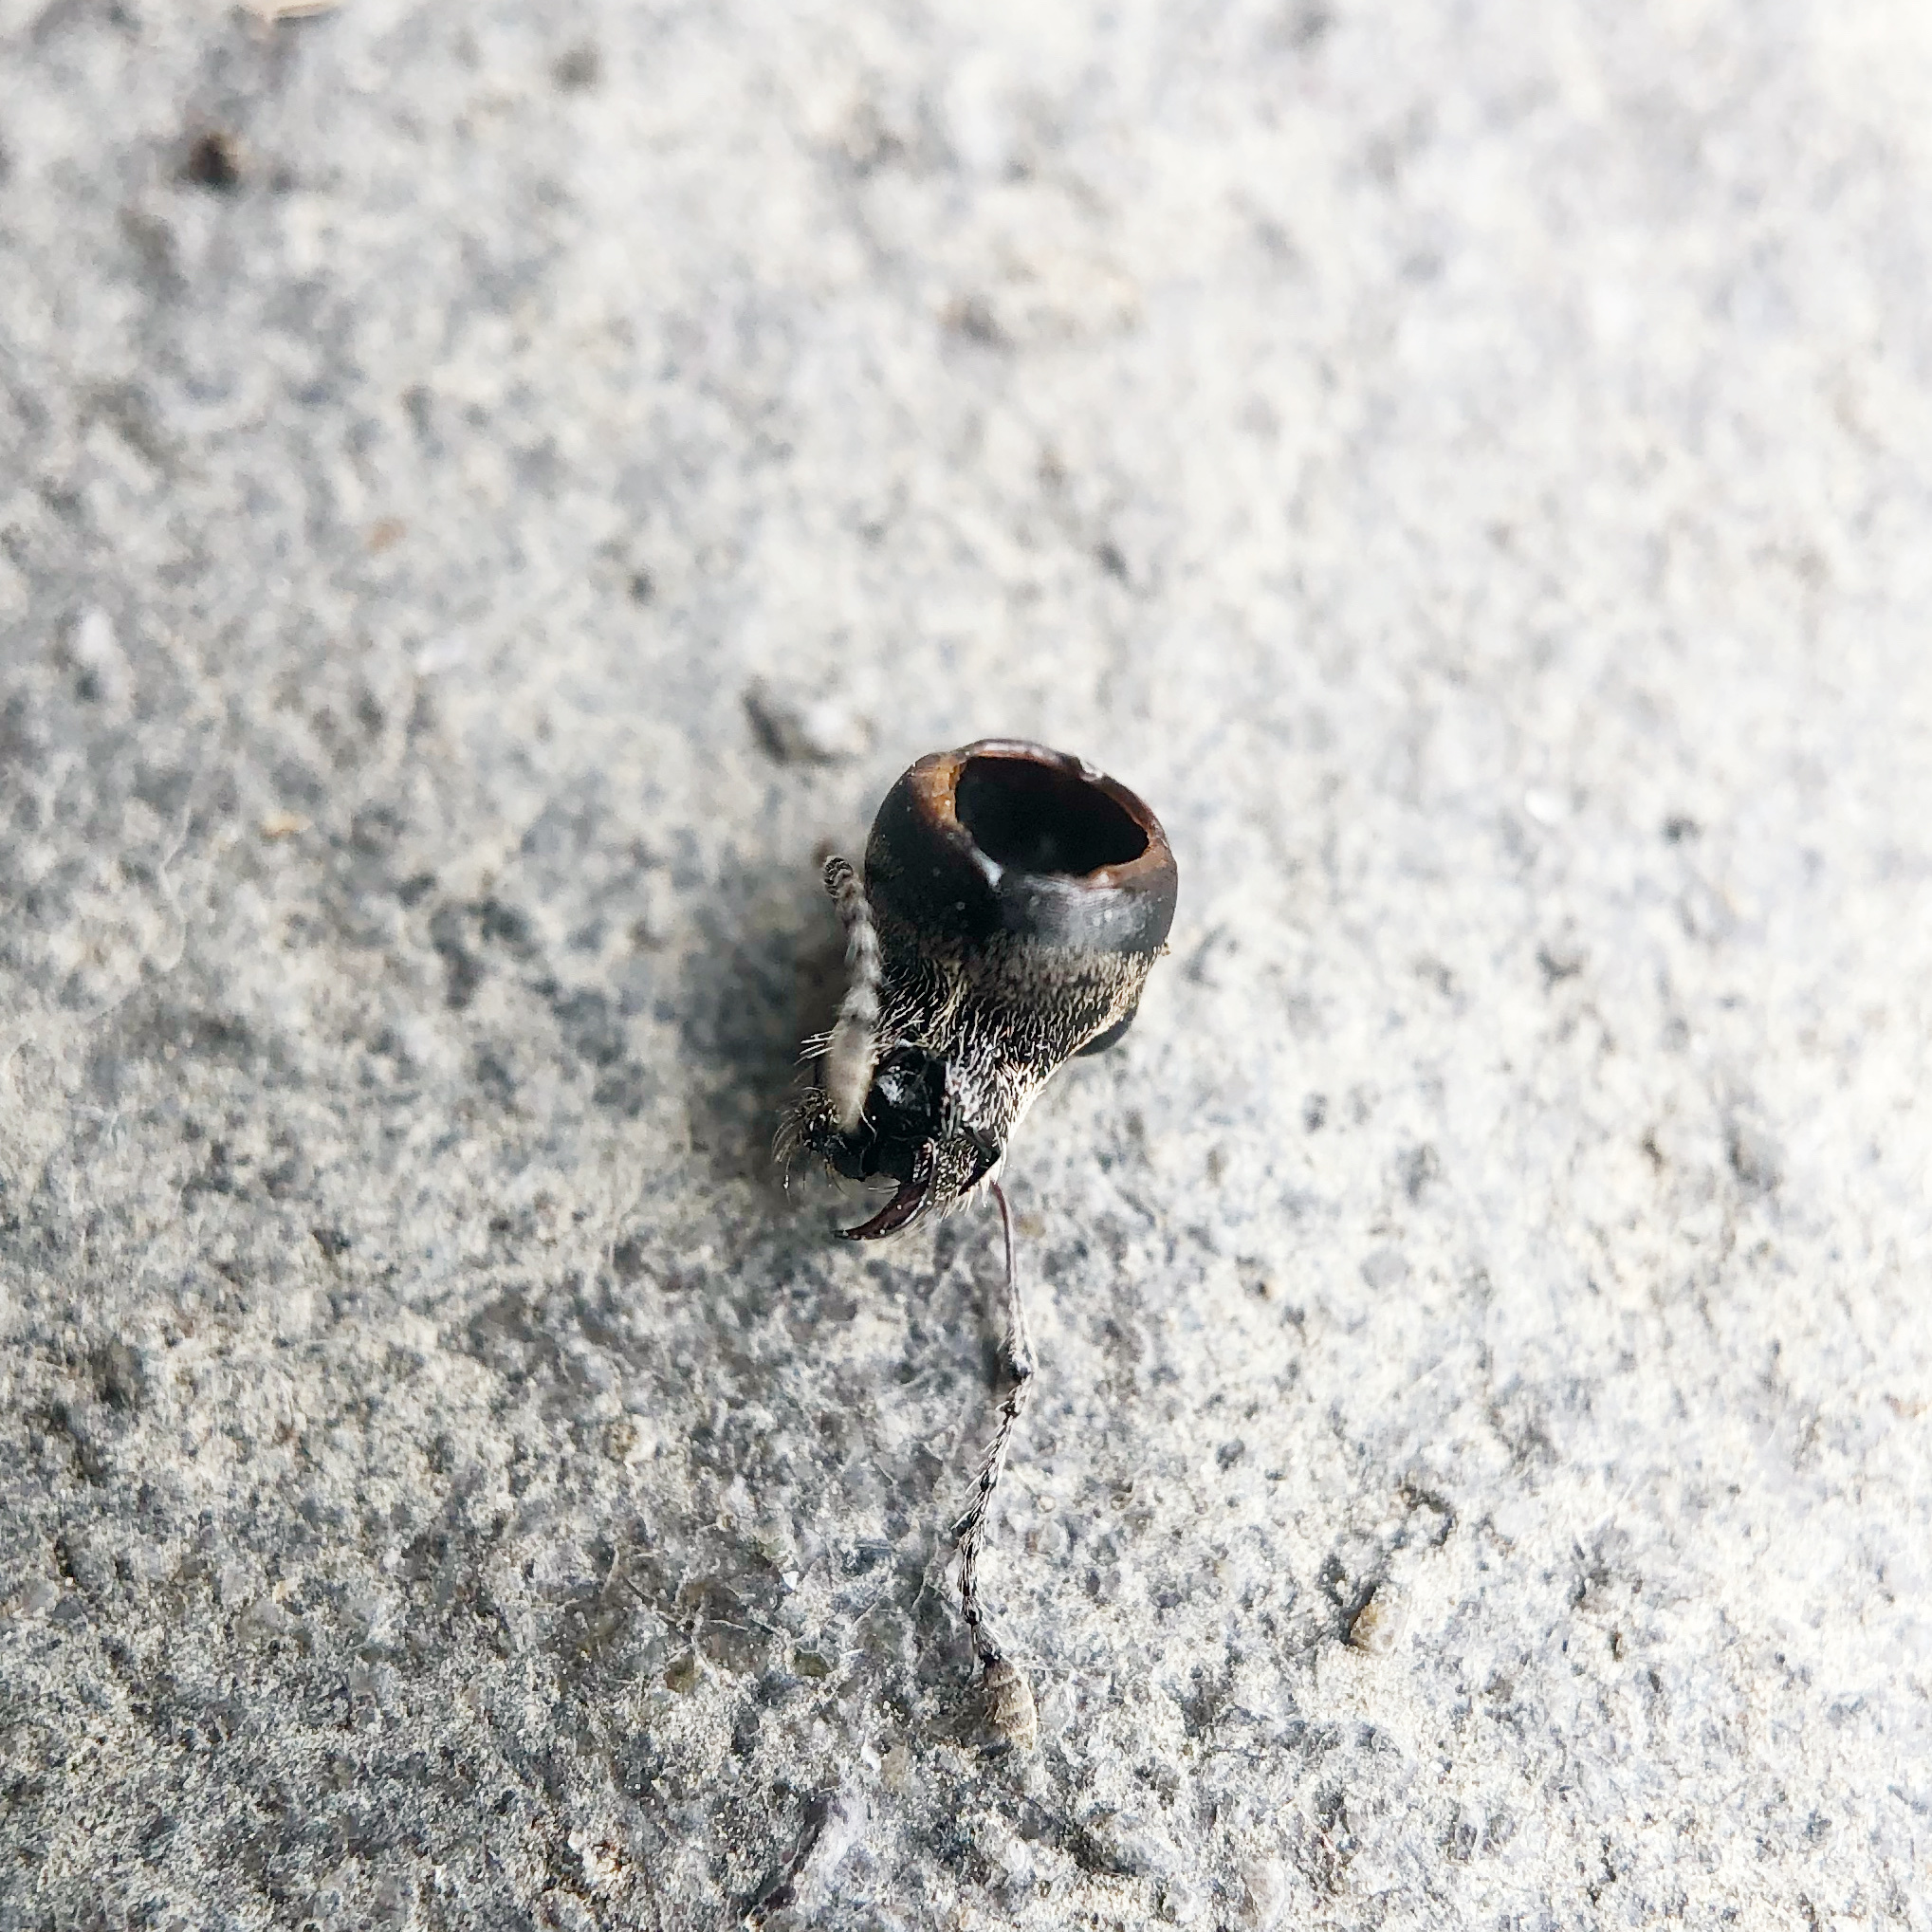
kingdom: Animalia
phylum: Arthropoda
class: Insecta
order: Coleoptera
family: Curculionidae
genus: Naupactus
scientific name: Naupactus leucoloma
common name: Whitefringed beetle
